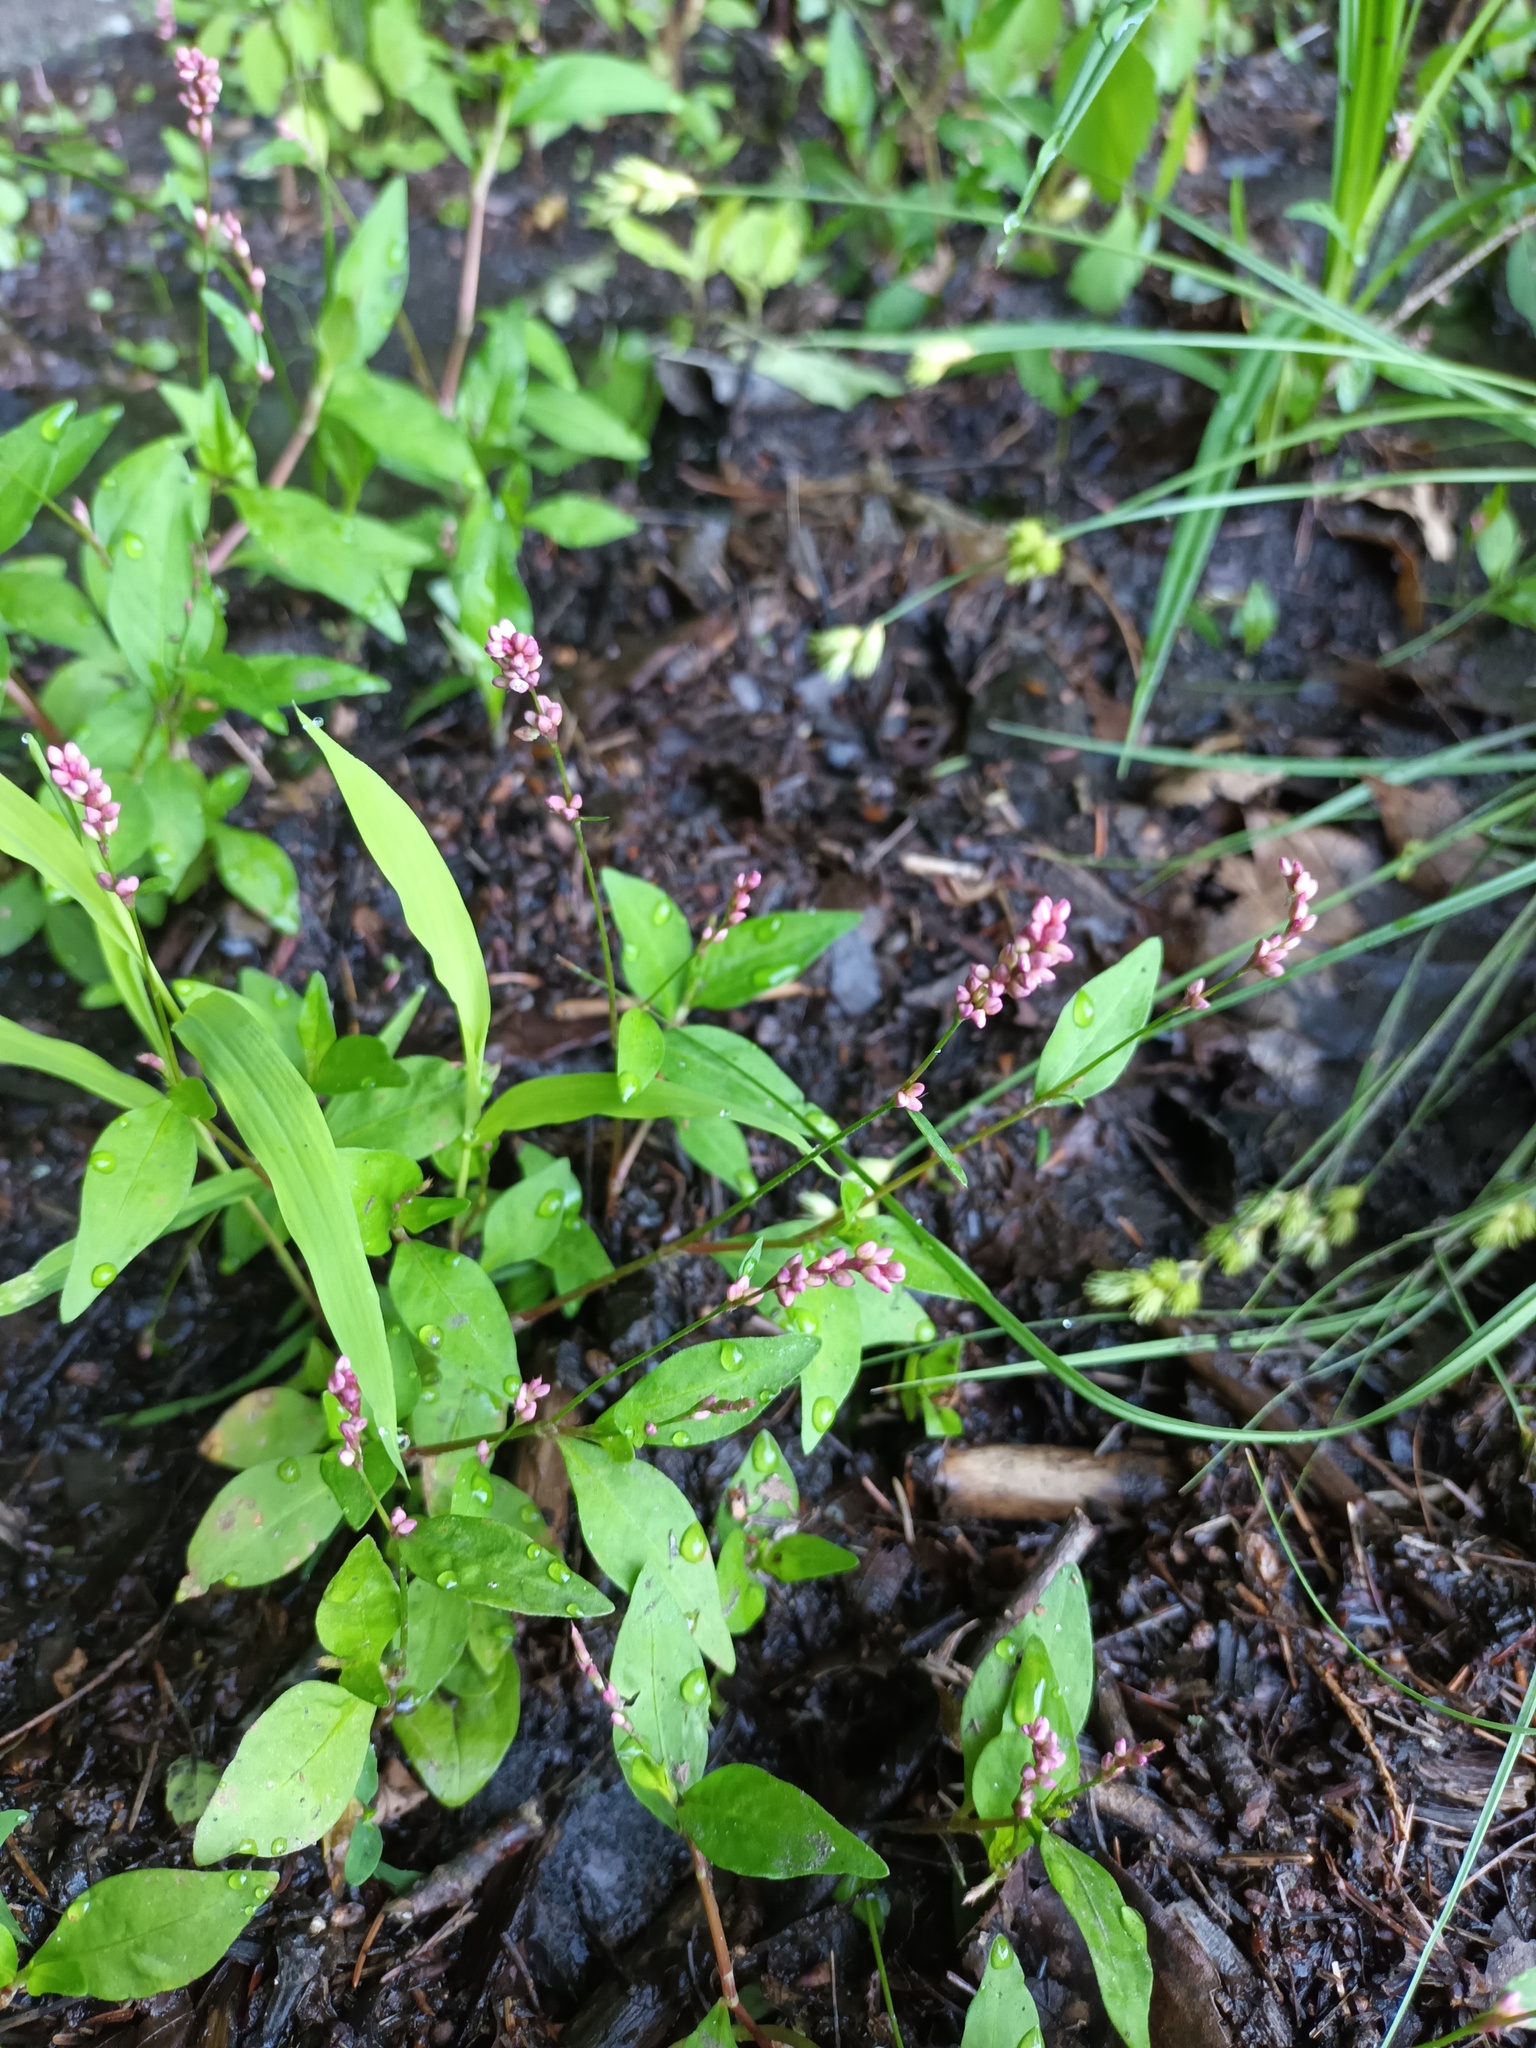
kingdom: Plantae
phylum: Tracheophyta
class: Magnoliopsida
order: Caryophyllales
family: Polygonaceae
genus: Persicaria
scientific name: Persicaria longiseta
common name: Bristly lady's-thumb
